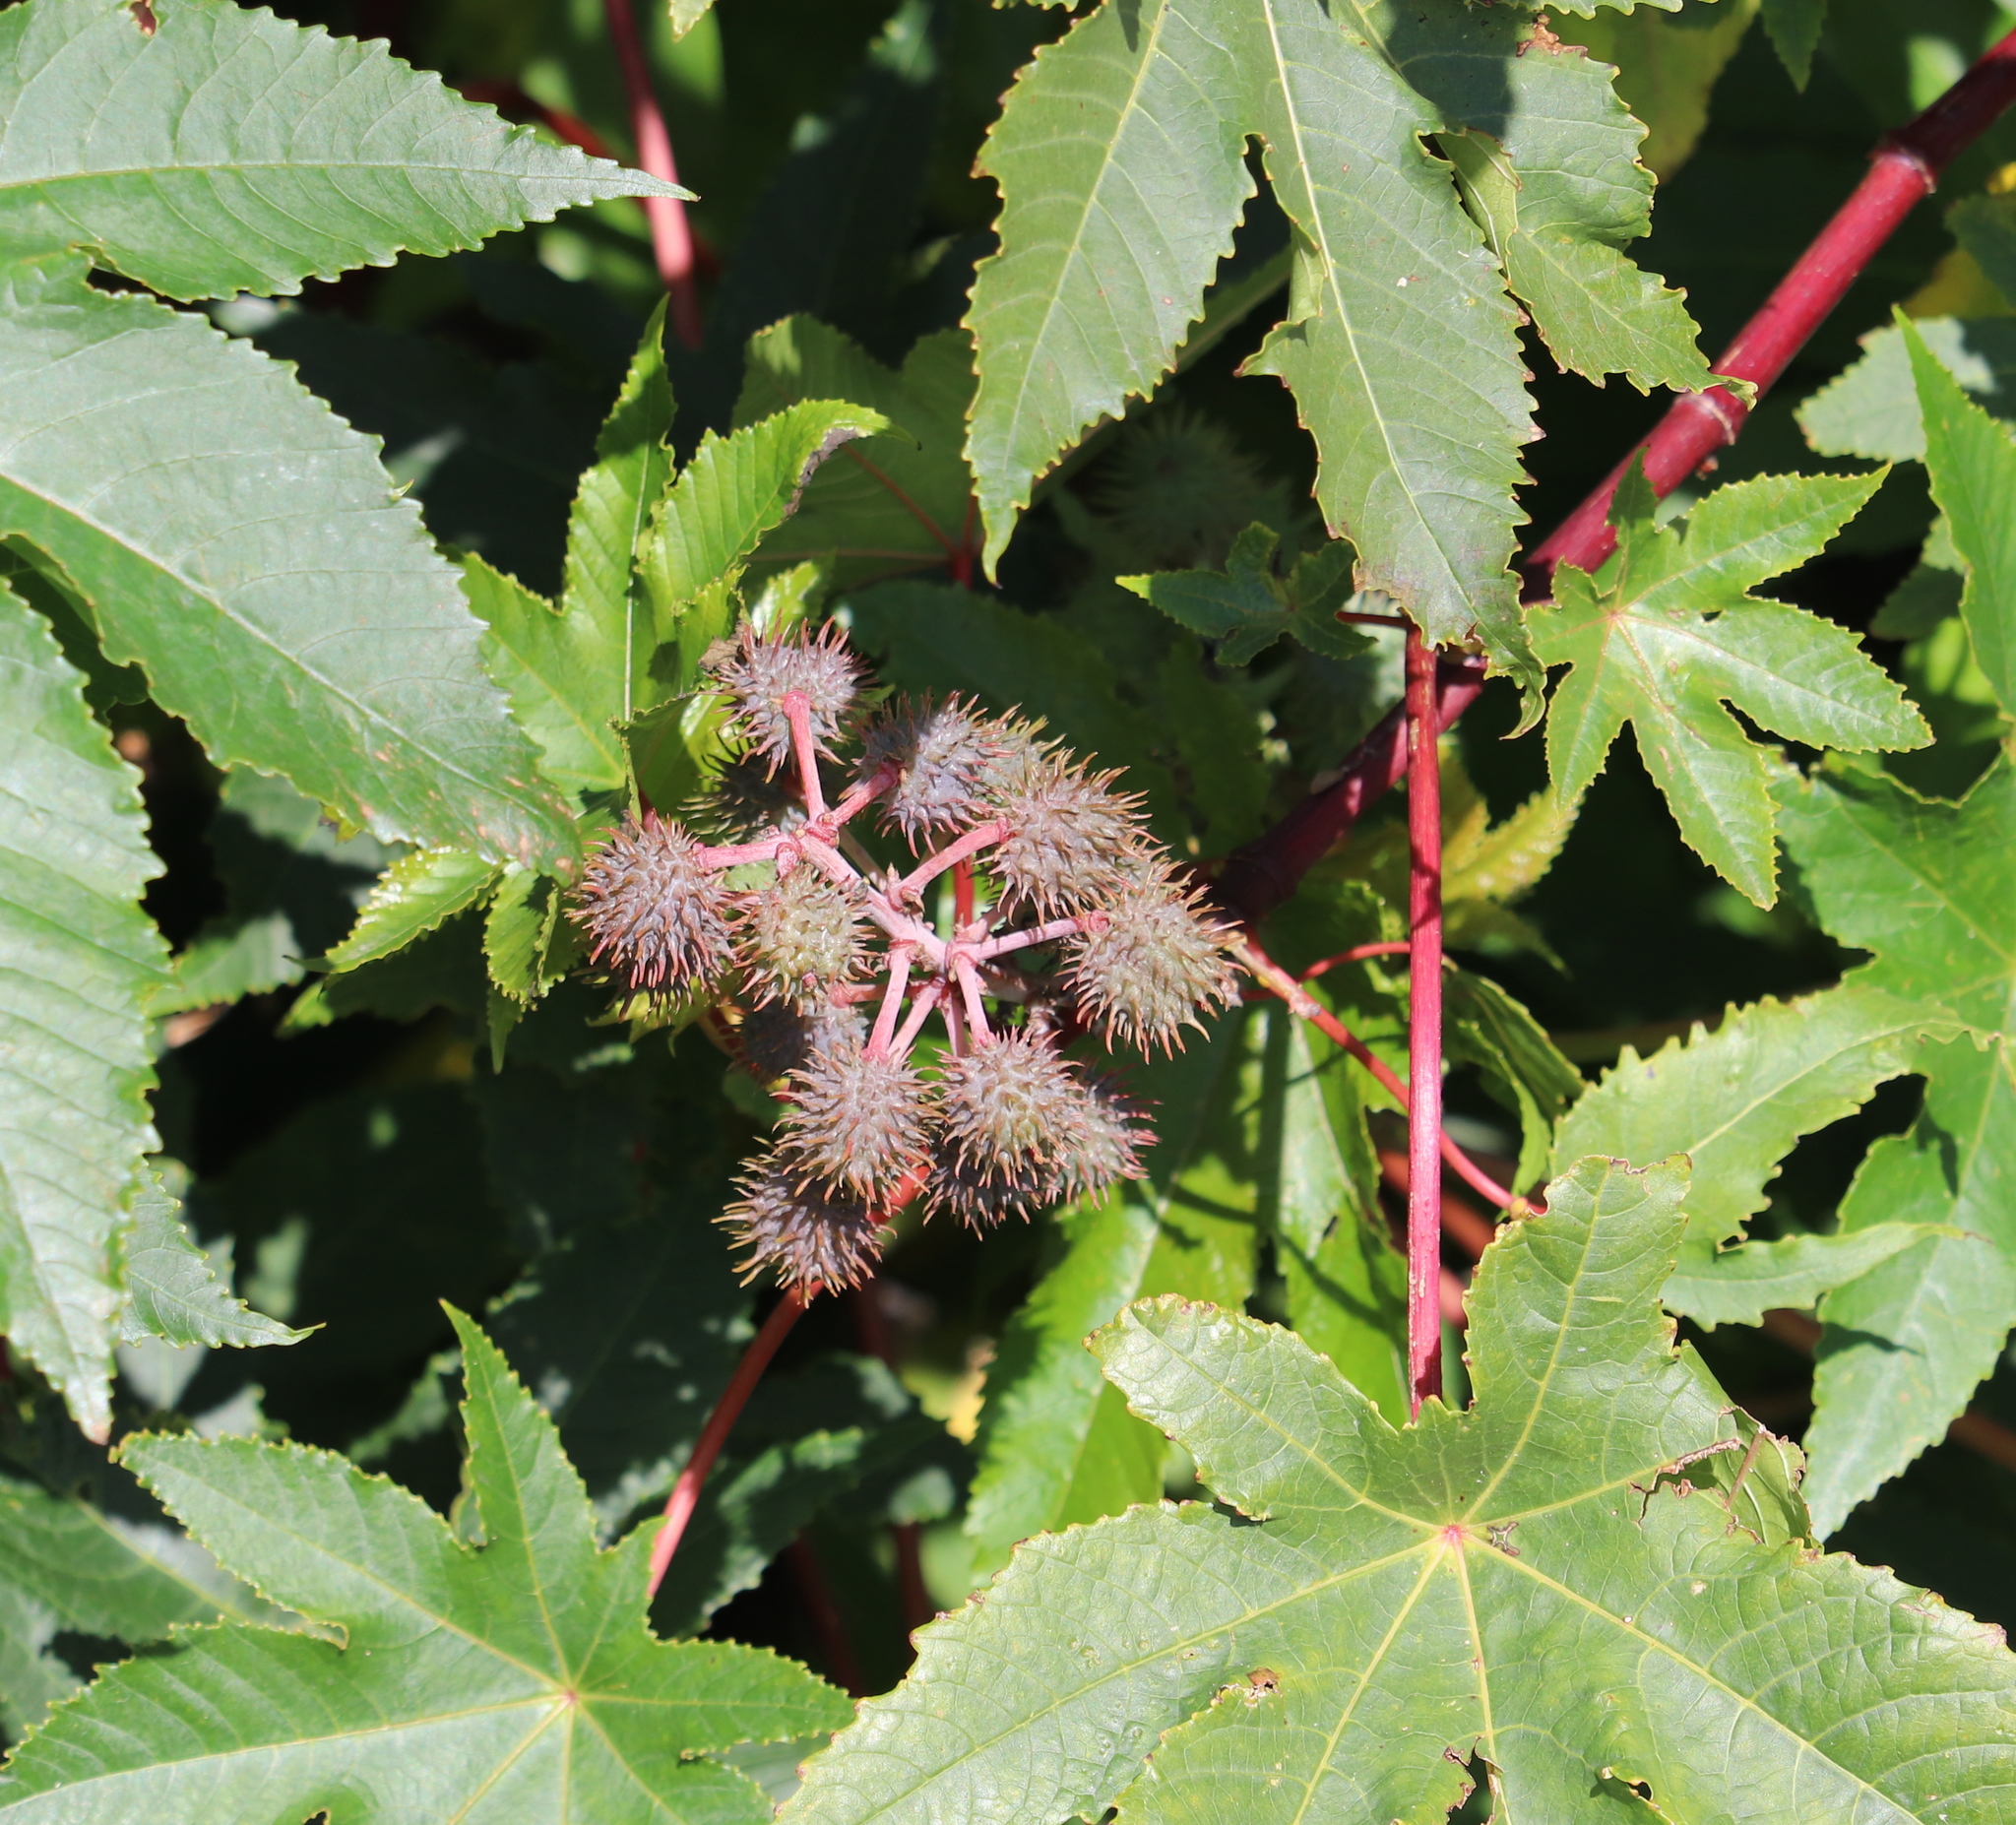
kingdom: Plantae
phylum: Tracheophyta
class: Magnoliopsida
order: Malpighiales
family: Euphorbiaceae
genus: Ricinus
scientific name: Ricinus communis
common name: Castor-oil-plant
